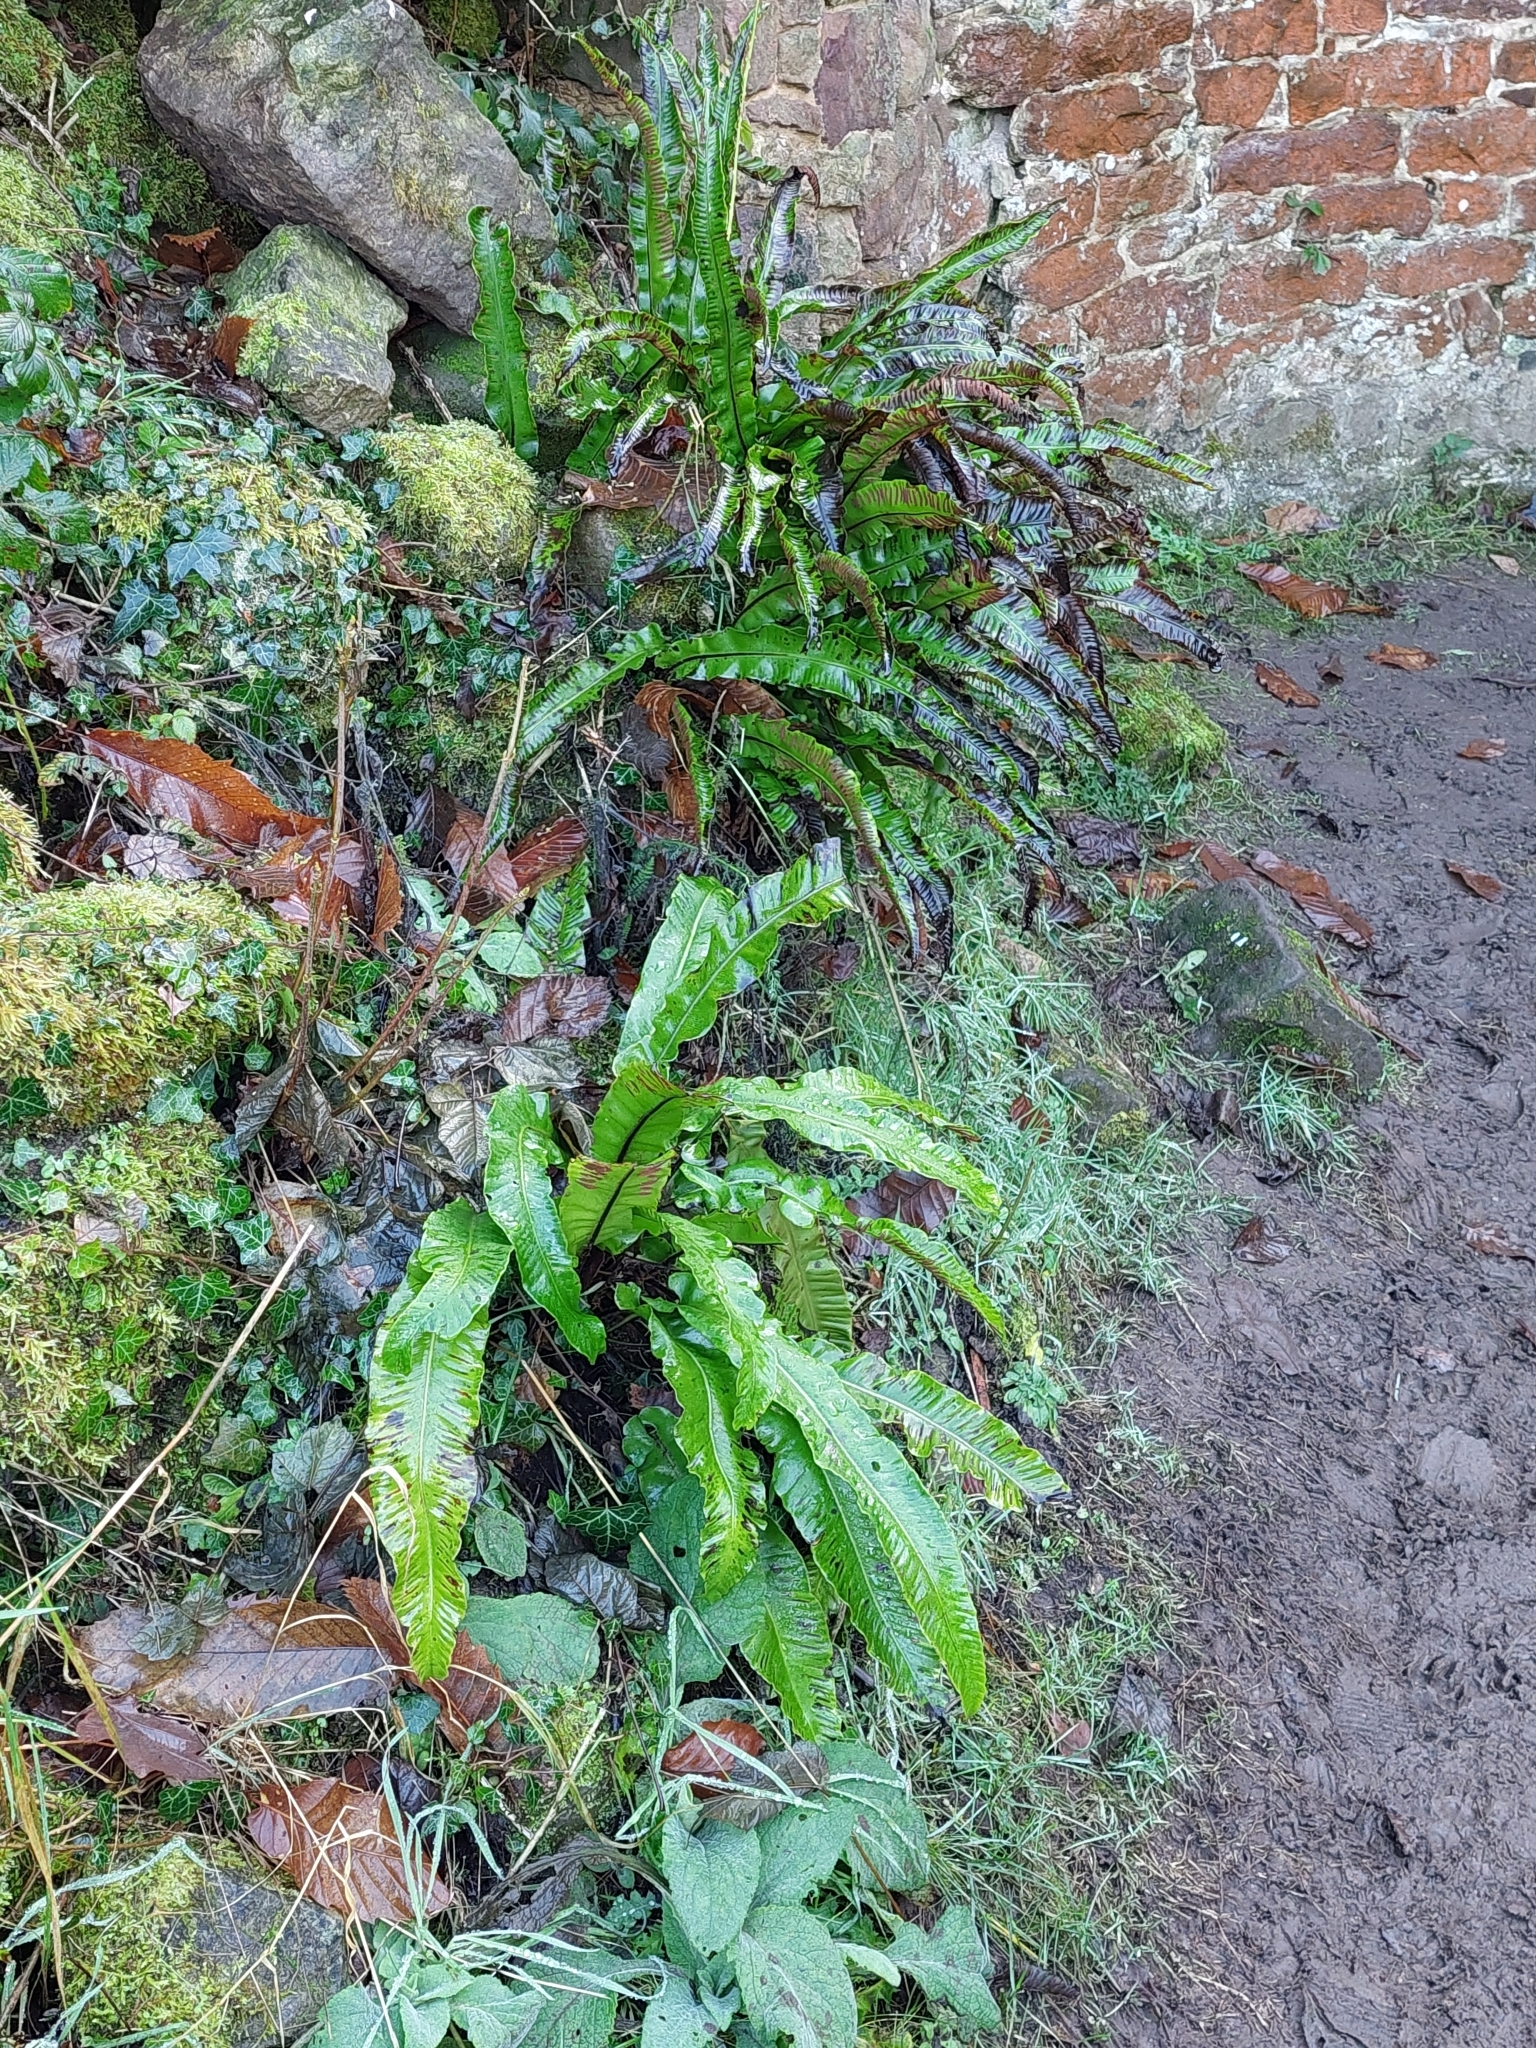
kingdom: Plantae
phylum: Tracheophyta
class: Polypodiopsida
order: Polypodiales
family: Aspleniaceae
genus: Asplenium
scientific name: Asplenium scolopendrium
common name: Hart's-tongue fern
